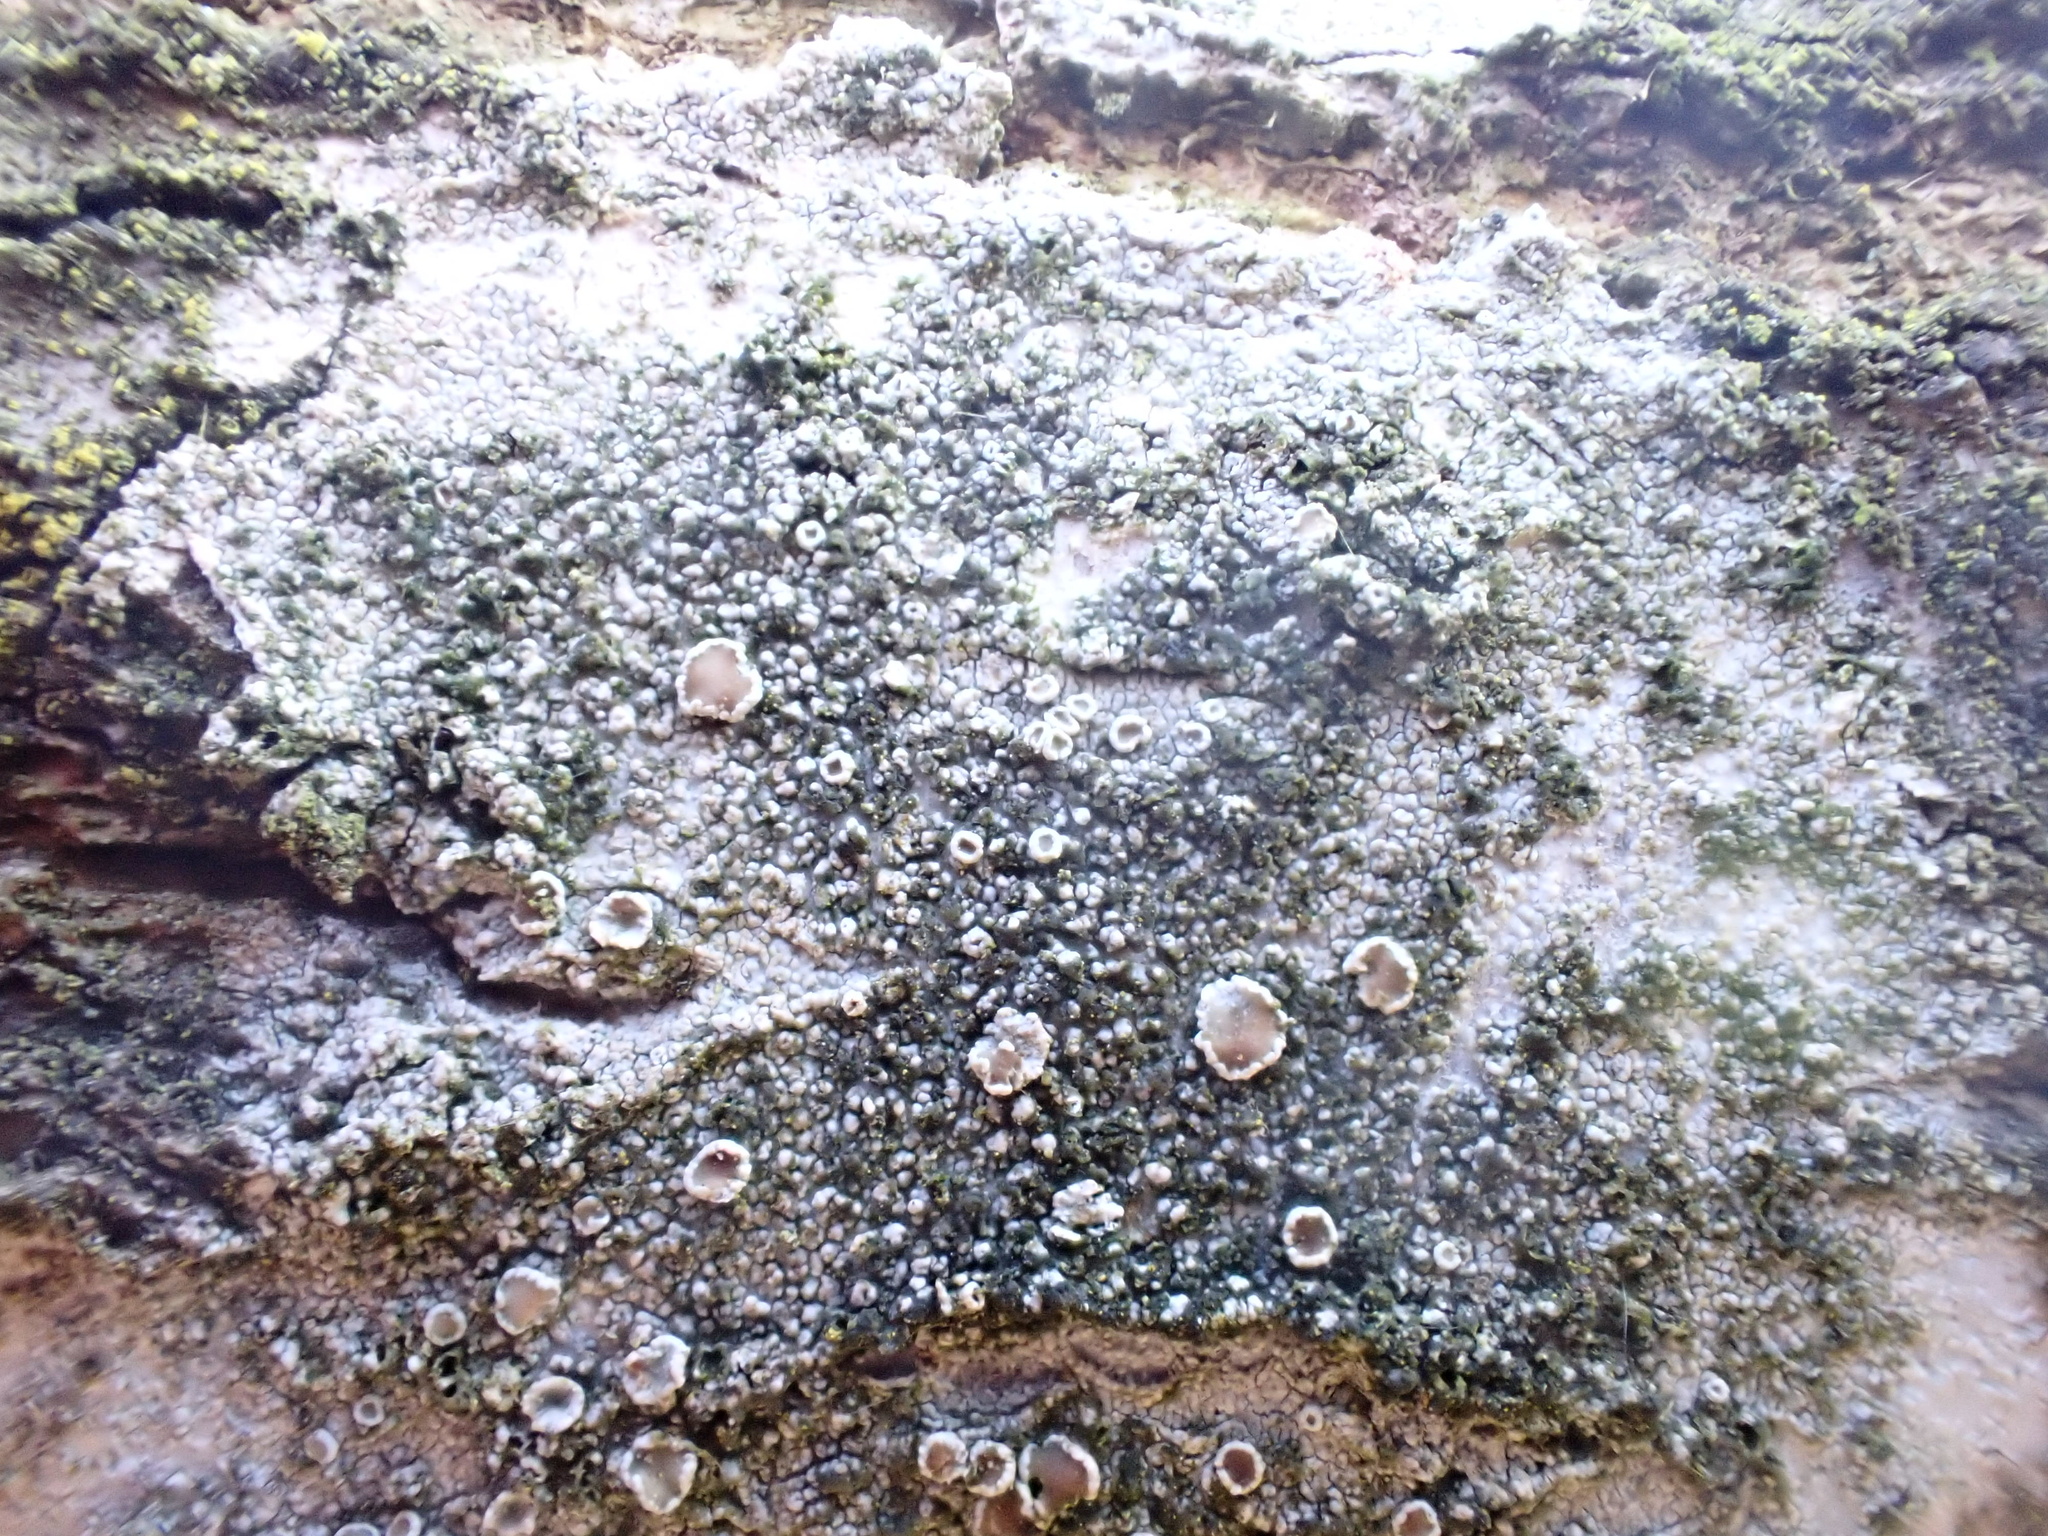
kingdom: Fungi
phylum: Ascomycota
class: Lecanoromycetes
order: Lecanorales
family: Lecanoraceae
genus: Lecanora
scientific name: Lecanora chlarotera
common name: Brown rim-lichen
